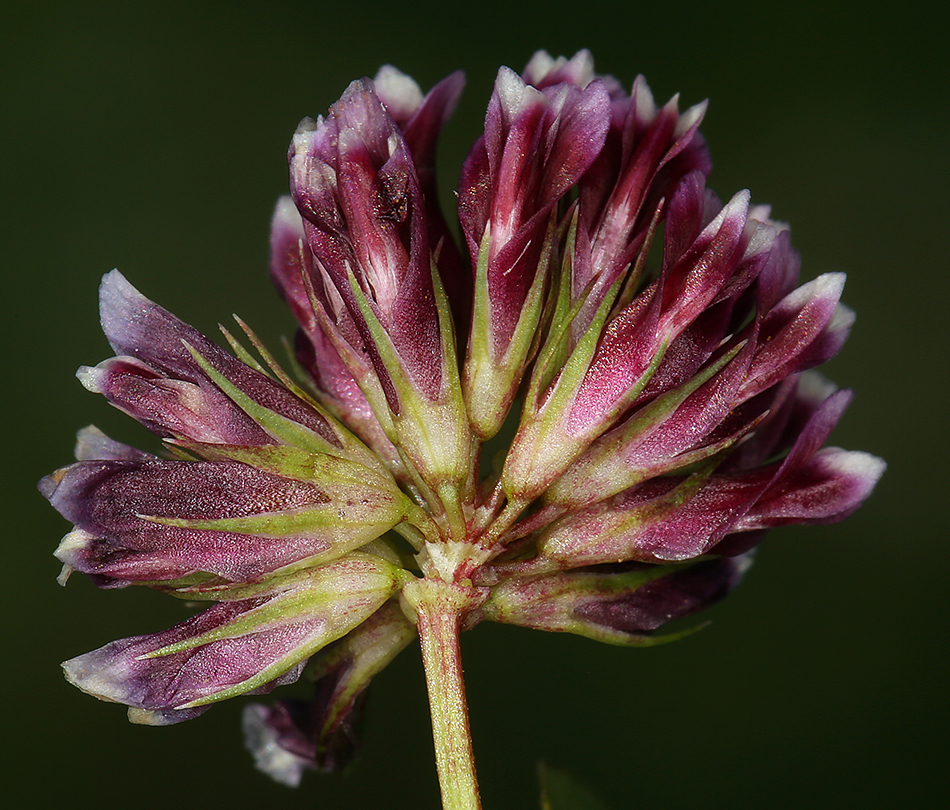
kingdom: Plantae
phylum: Tracheophyta
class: Magnoliopsida
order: Fabales
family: Fabaceae
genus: Trifolium
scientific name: Trifolium gracilentum
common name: Slender clover
